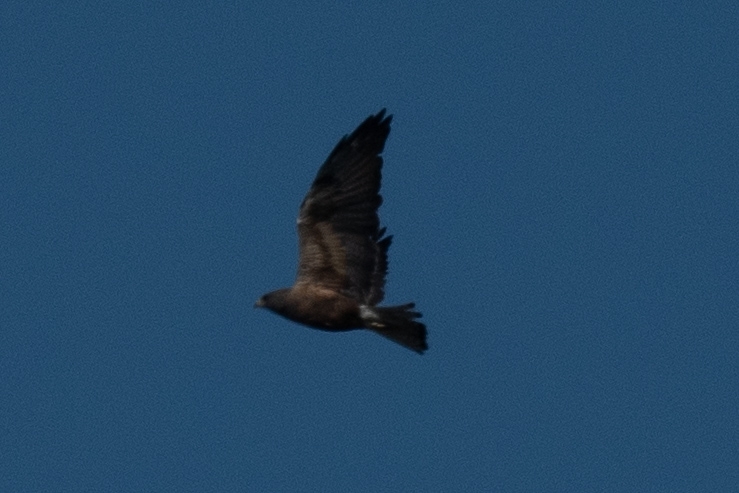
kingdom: Animalia
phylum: Chordata
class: Aves
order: Accipitriformes
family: Accipitridae
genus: Buteo
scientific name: Buteo swainsoni
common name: Swainson's hawk
